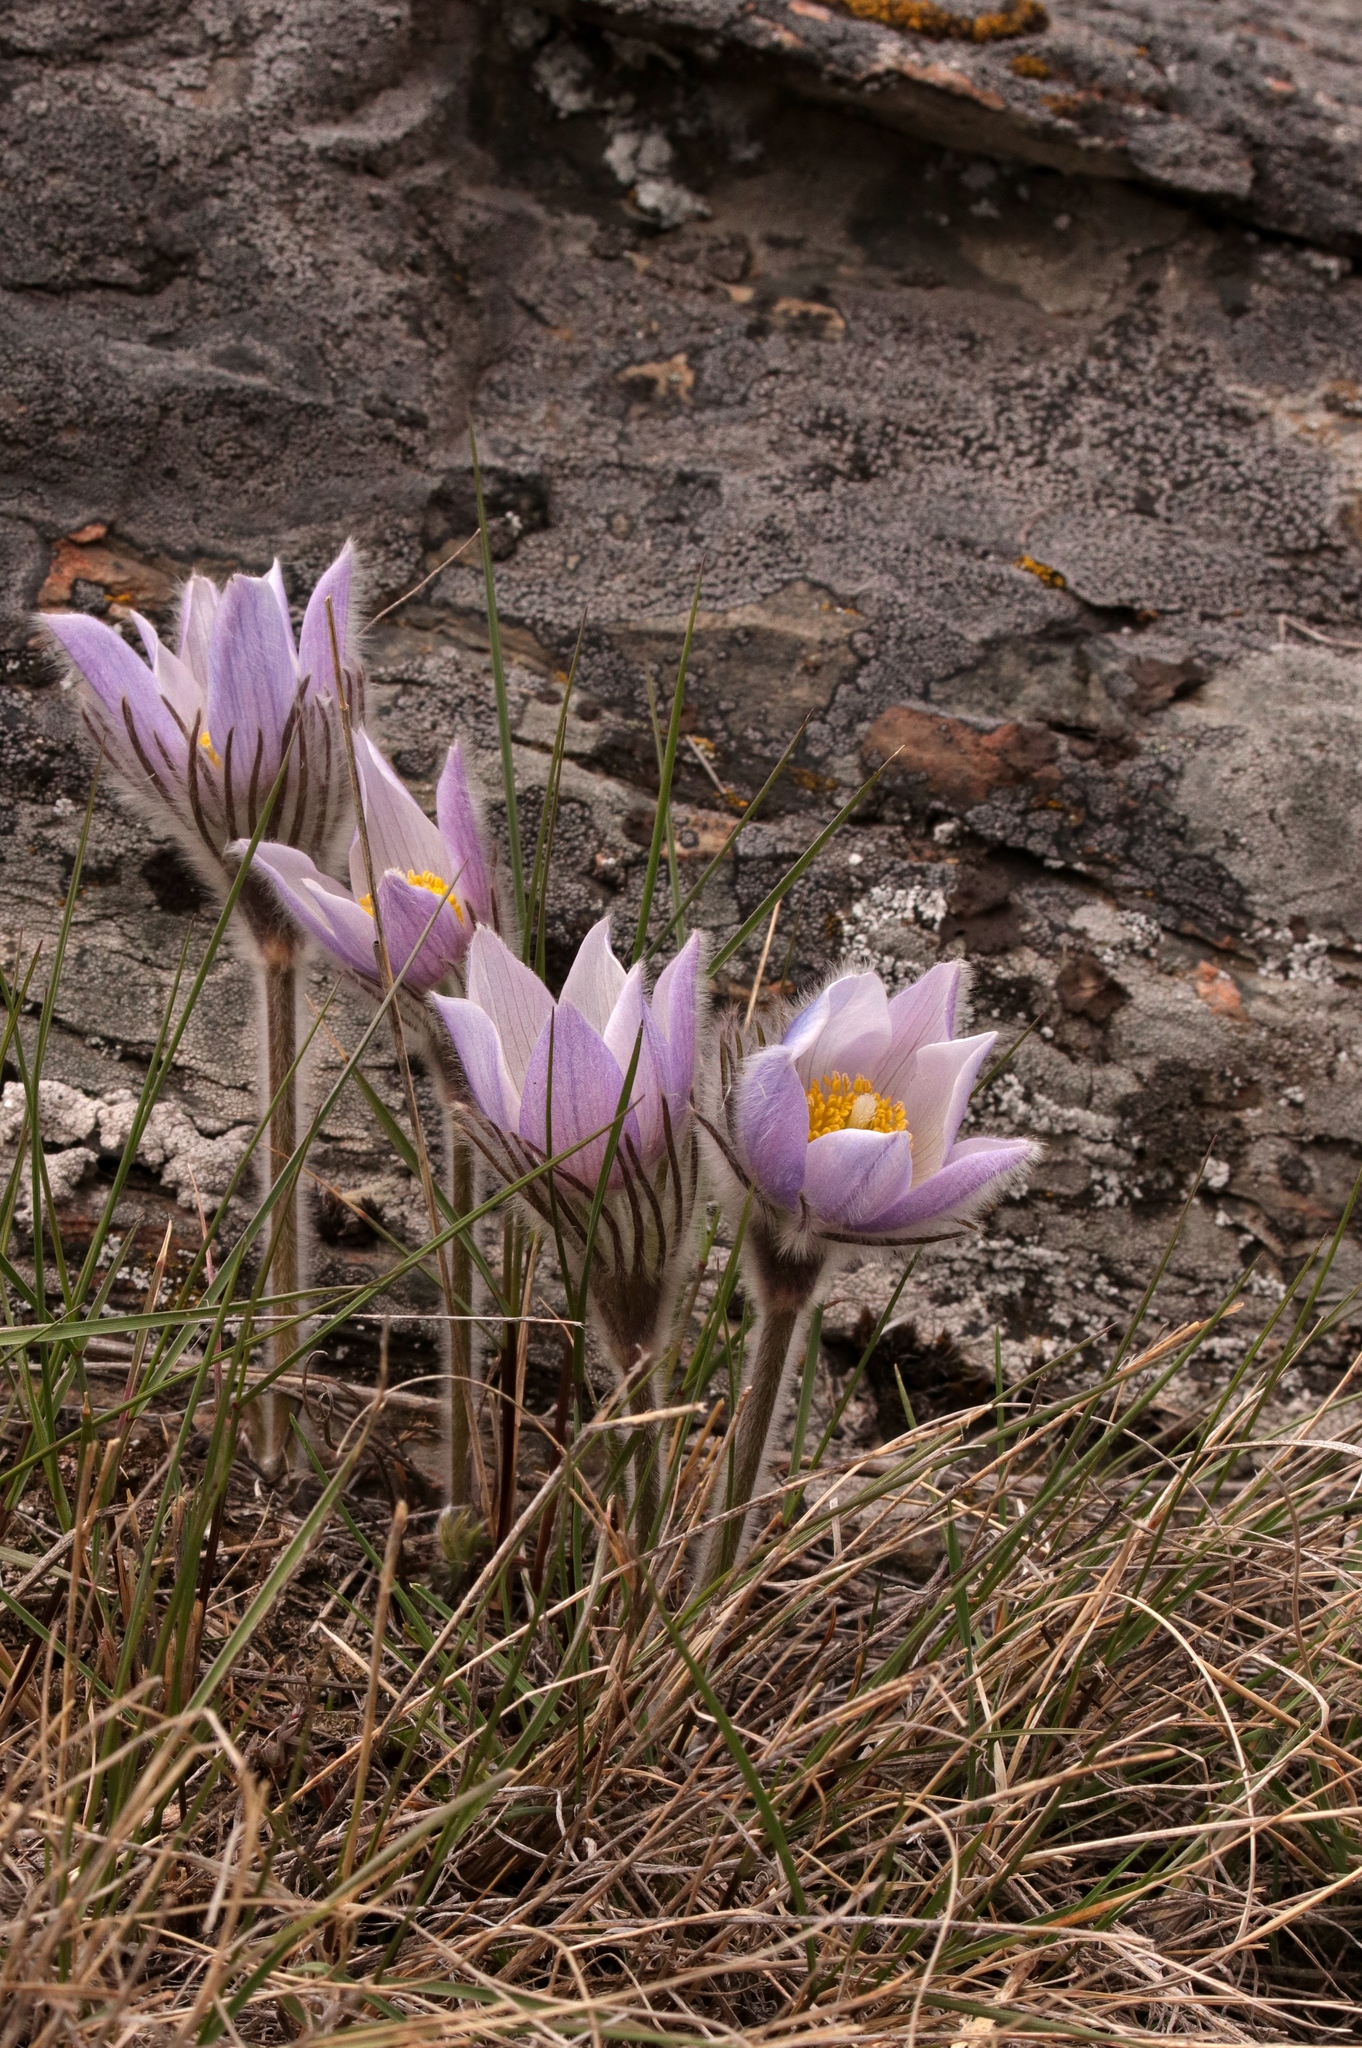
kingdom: Plantae
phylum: Tracheophyta
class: Magnoliopsida
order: Ranunculales
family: Ranunculaceae
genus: Pulsatilla
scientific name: Pulsatilla nuttalliana
